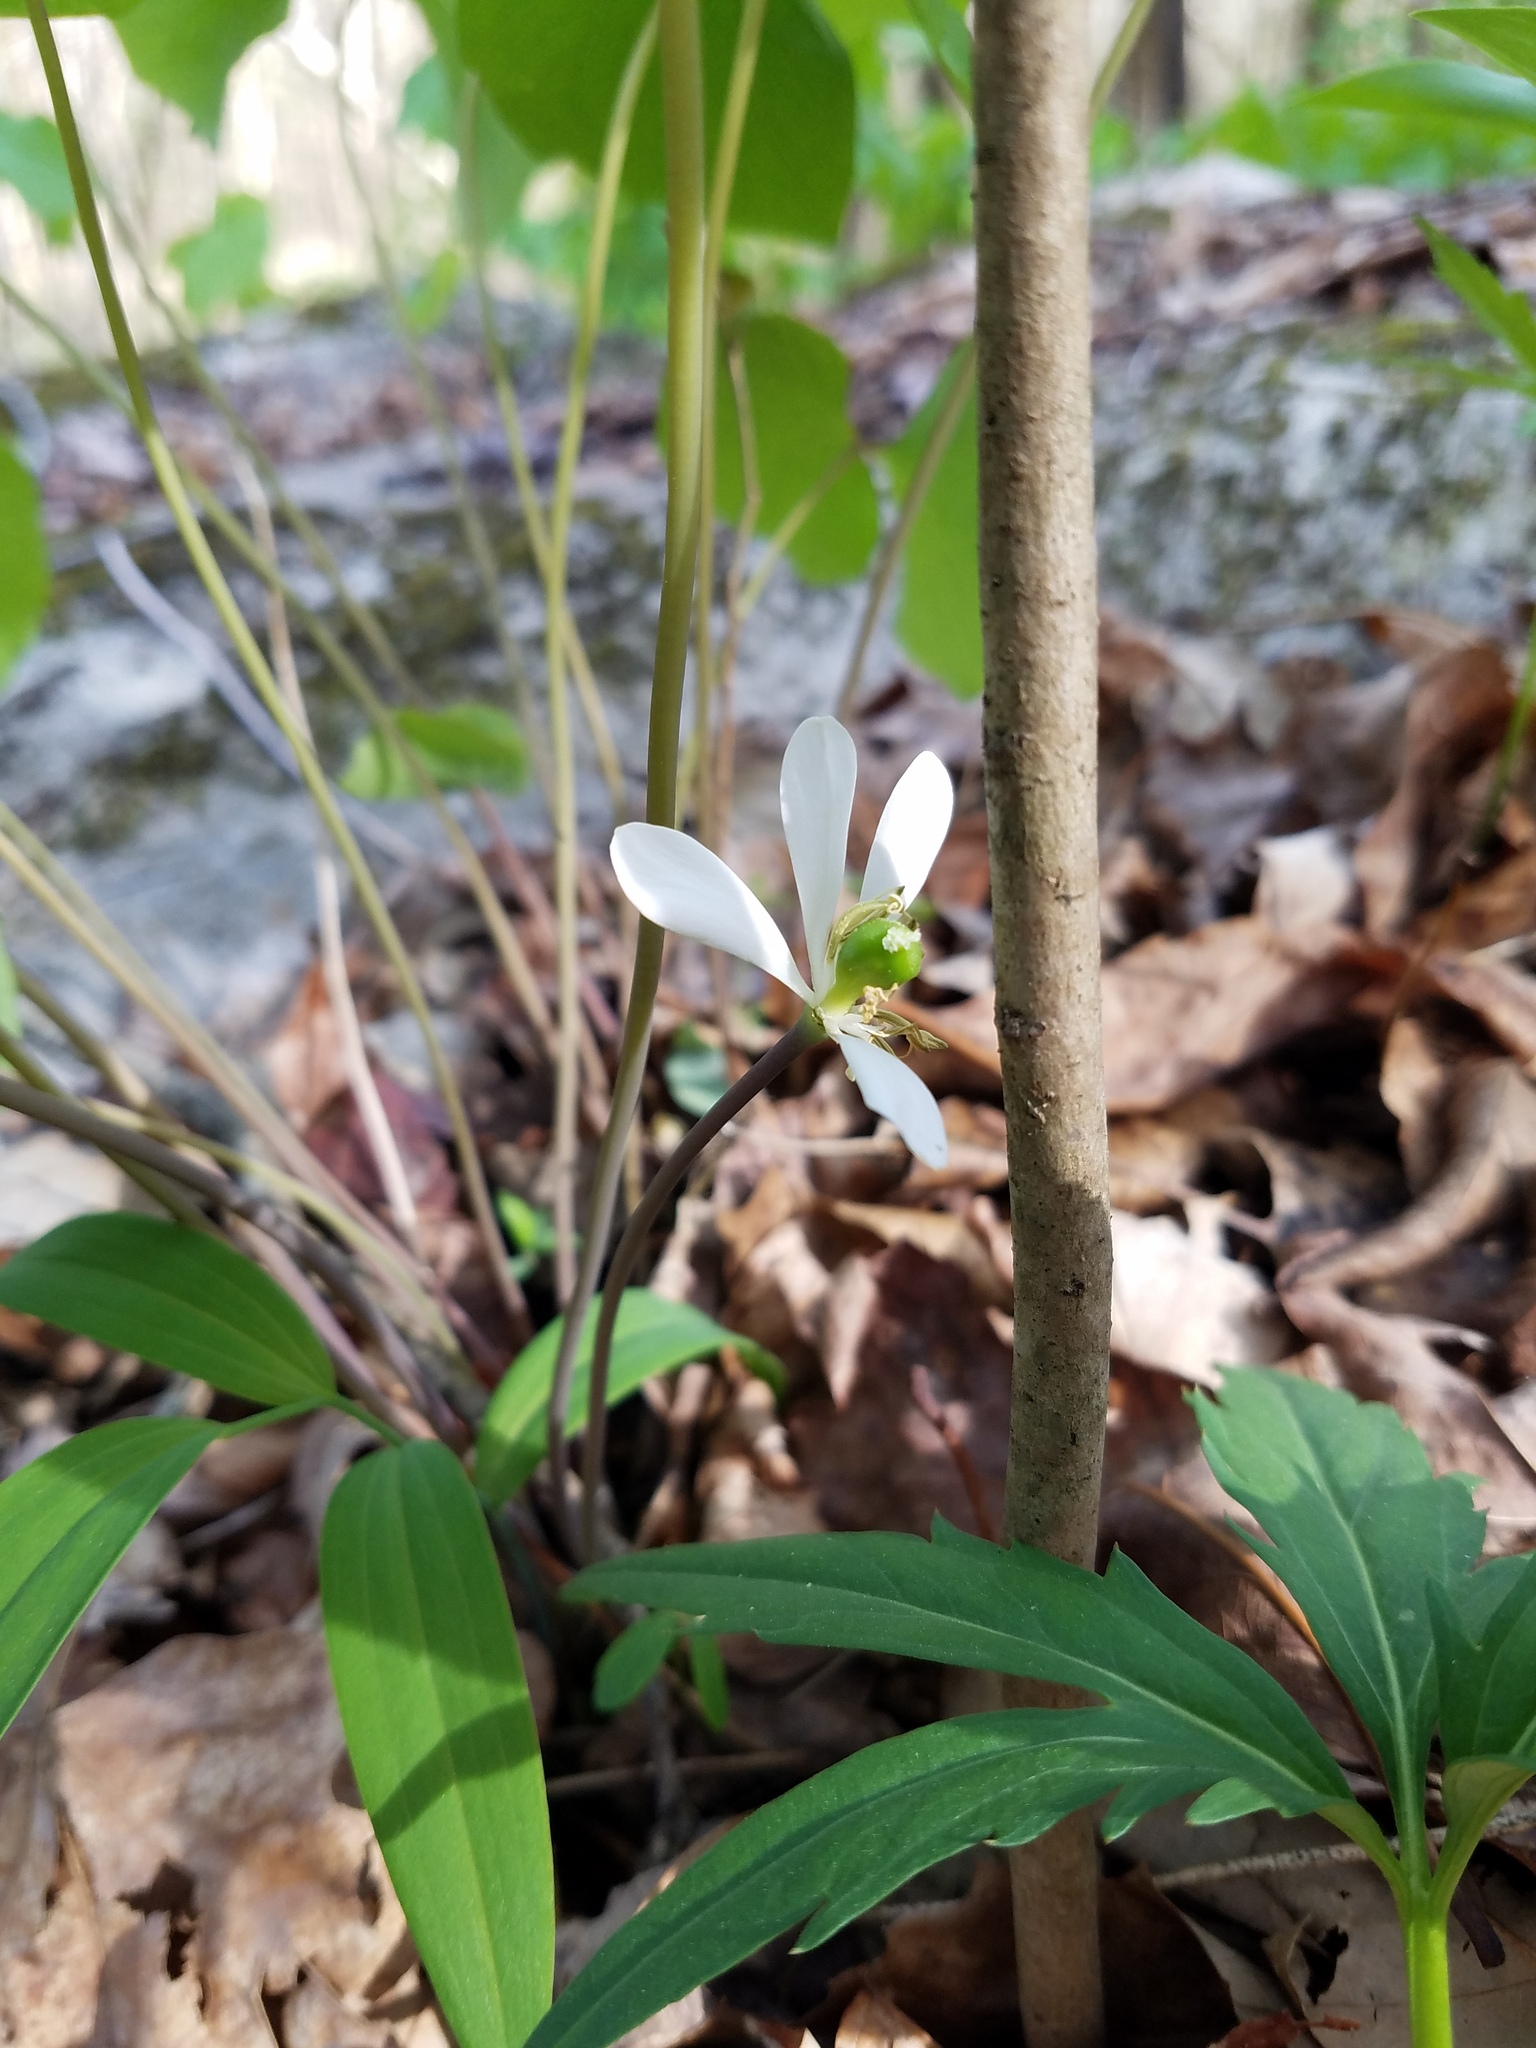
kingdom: Plantae
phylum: Tracheophyta
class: Magnoliopsida
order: Ranunculales
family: Berberidaceae
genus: Jeffersonia
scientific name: Jeffersonia diphylla
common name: Rheumatism-root
